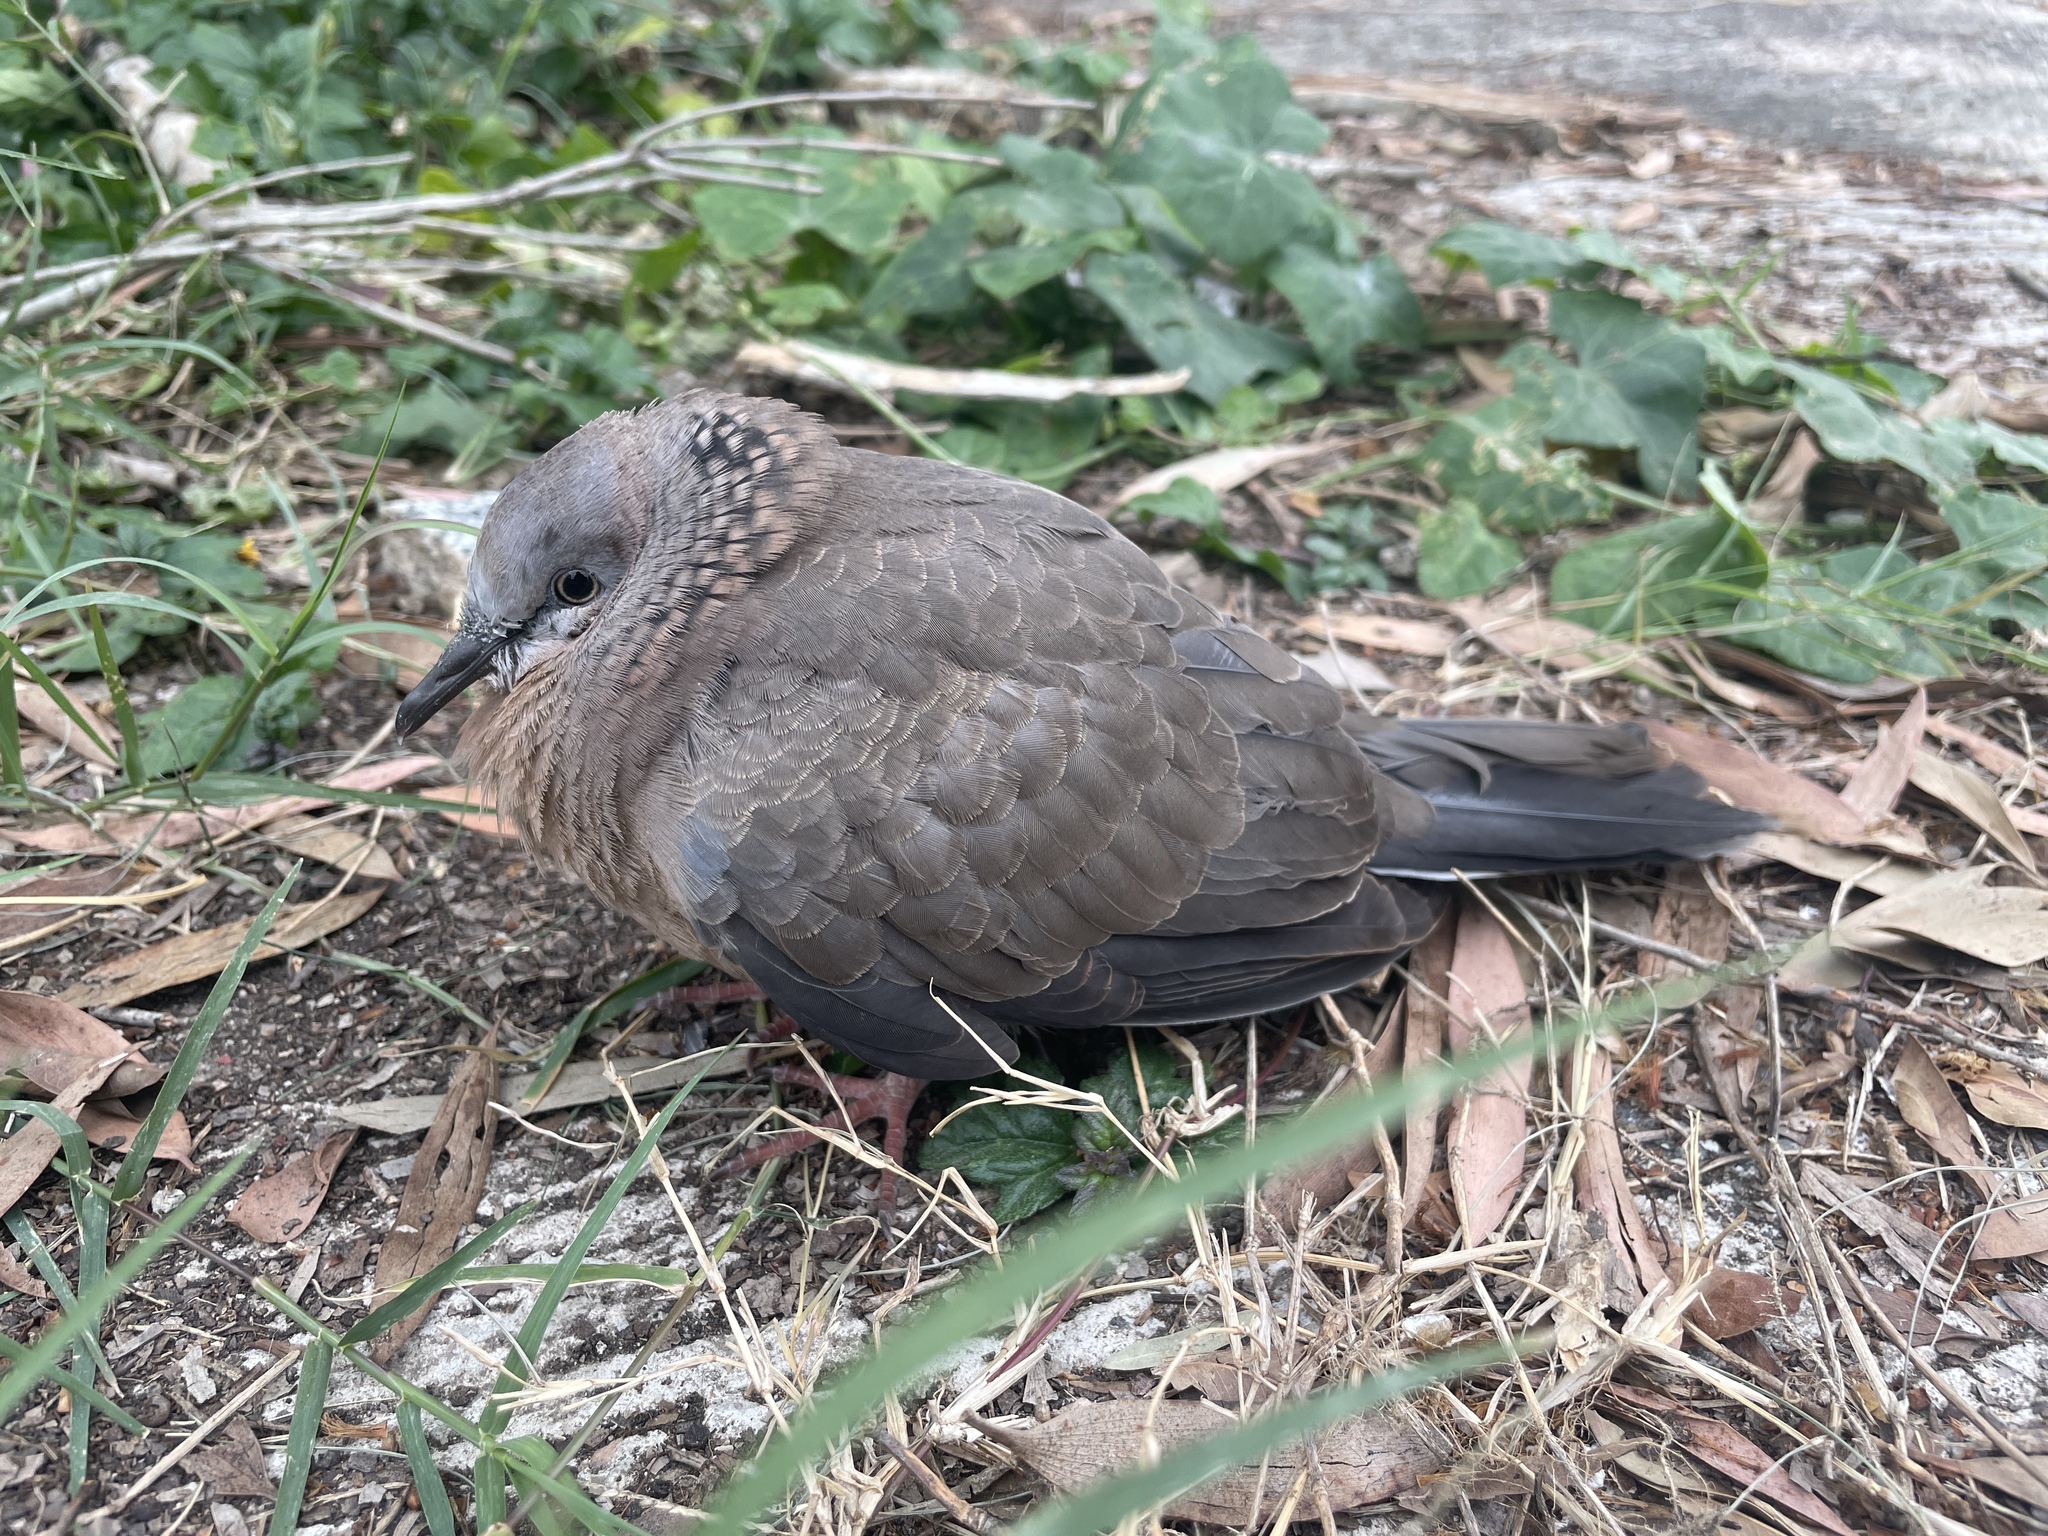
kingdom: Animalia
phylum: Chordata
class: Aves
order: Columbiformes
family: Columbidae
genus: Spilopelia
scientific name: Spilopelia chinensis
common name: Spotted dove
